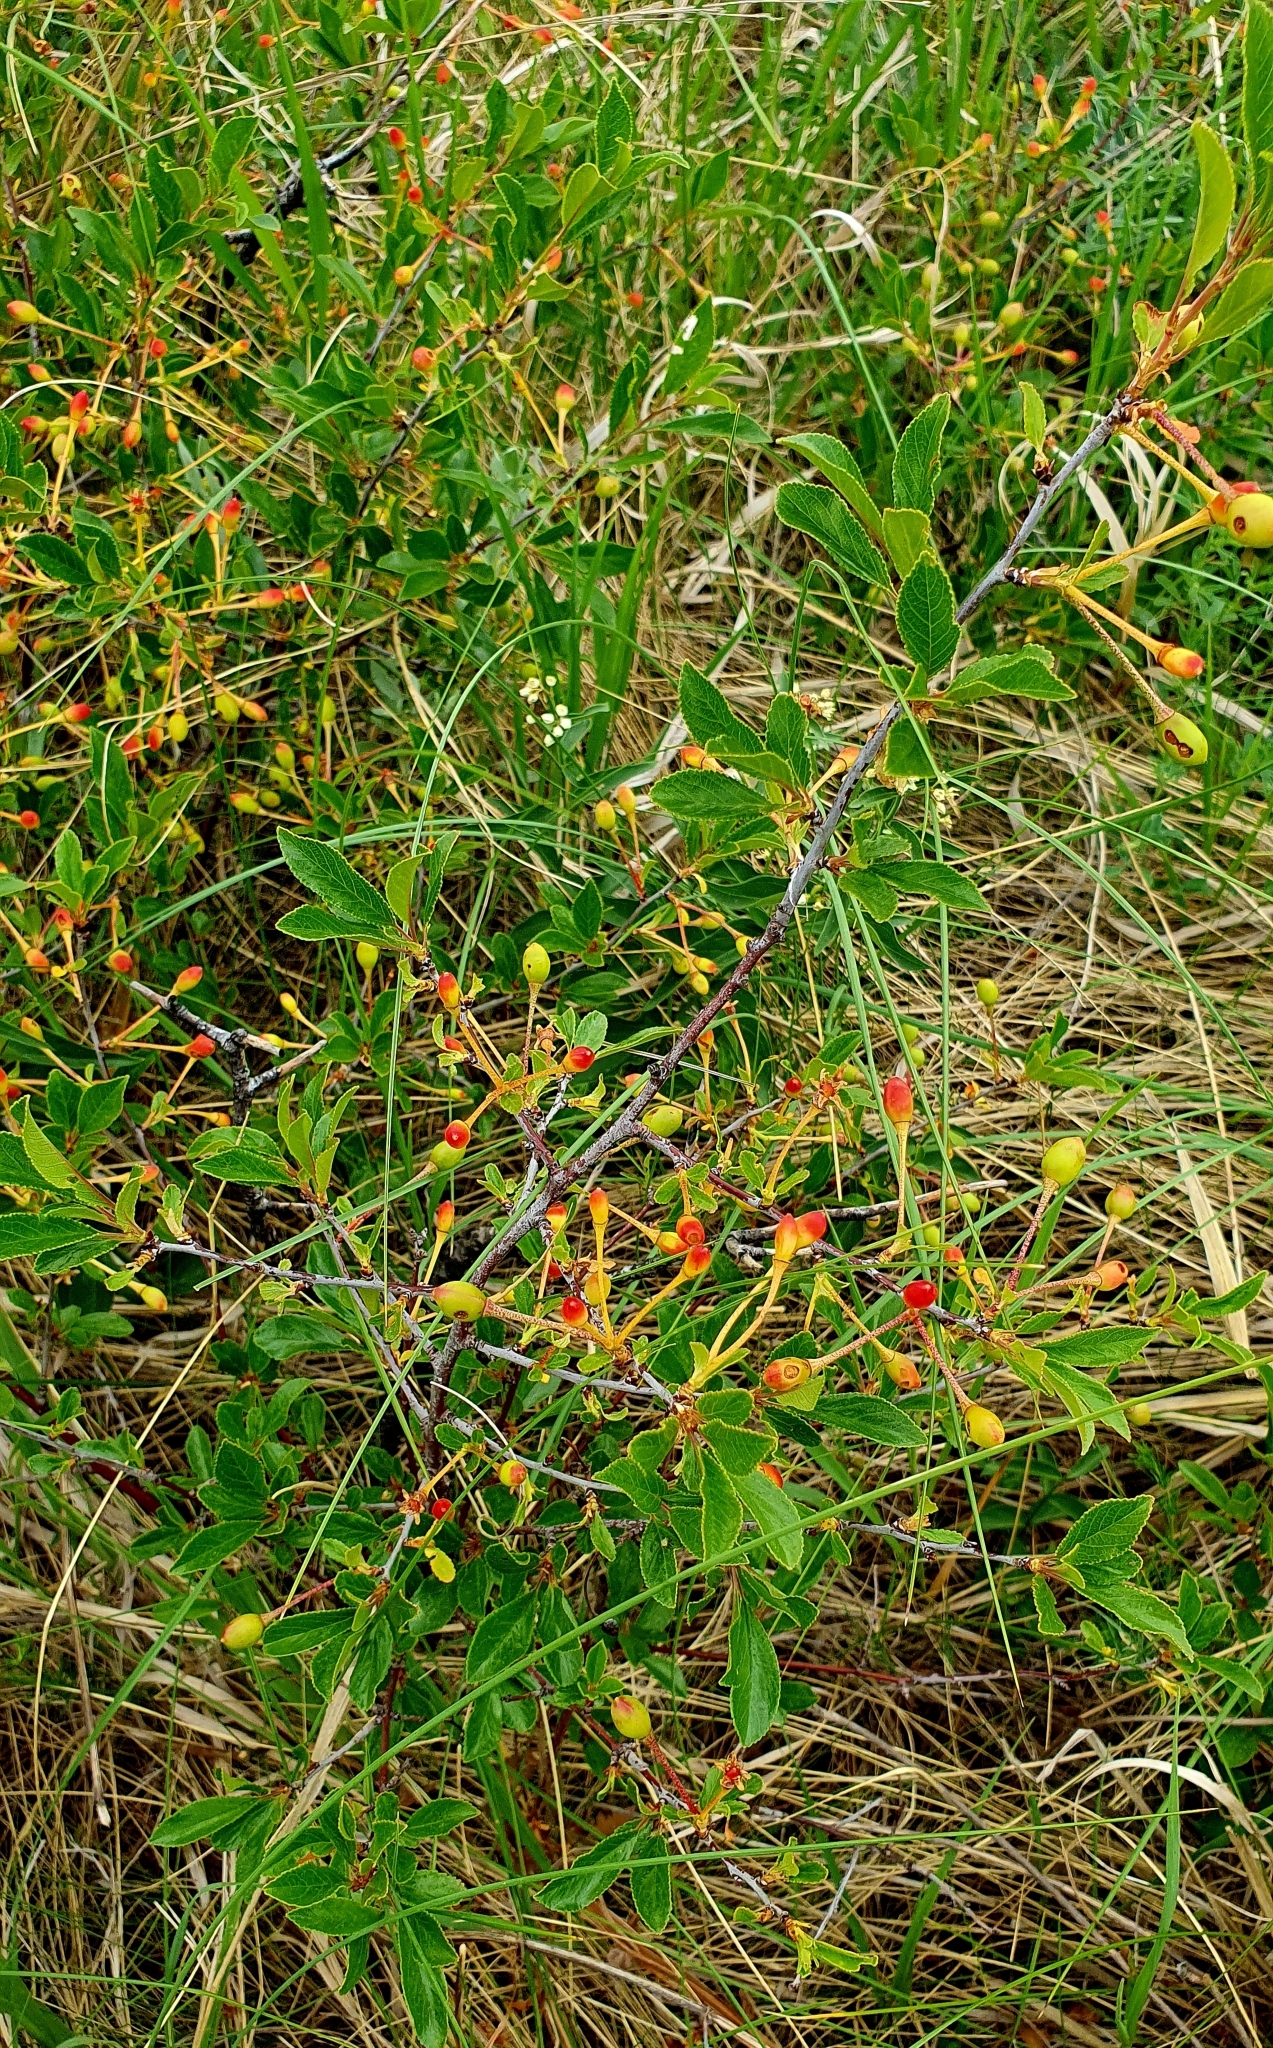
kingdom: Plantae
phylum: Tracheophyta
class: Magnoliopsida
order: Rosales
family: Rosaceae
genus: Prunus
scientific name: Prunus fruticosa
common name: European dwarf cherry
